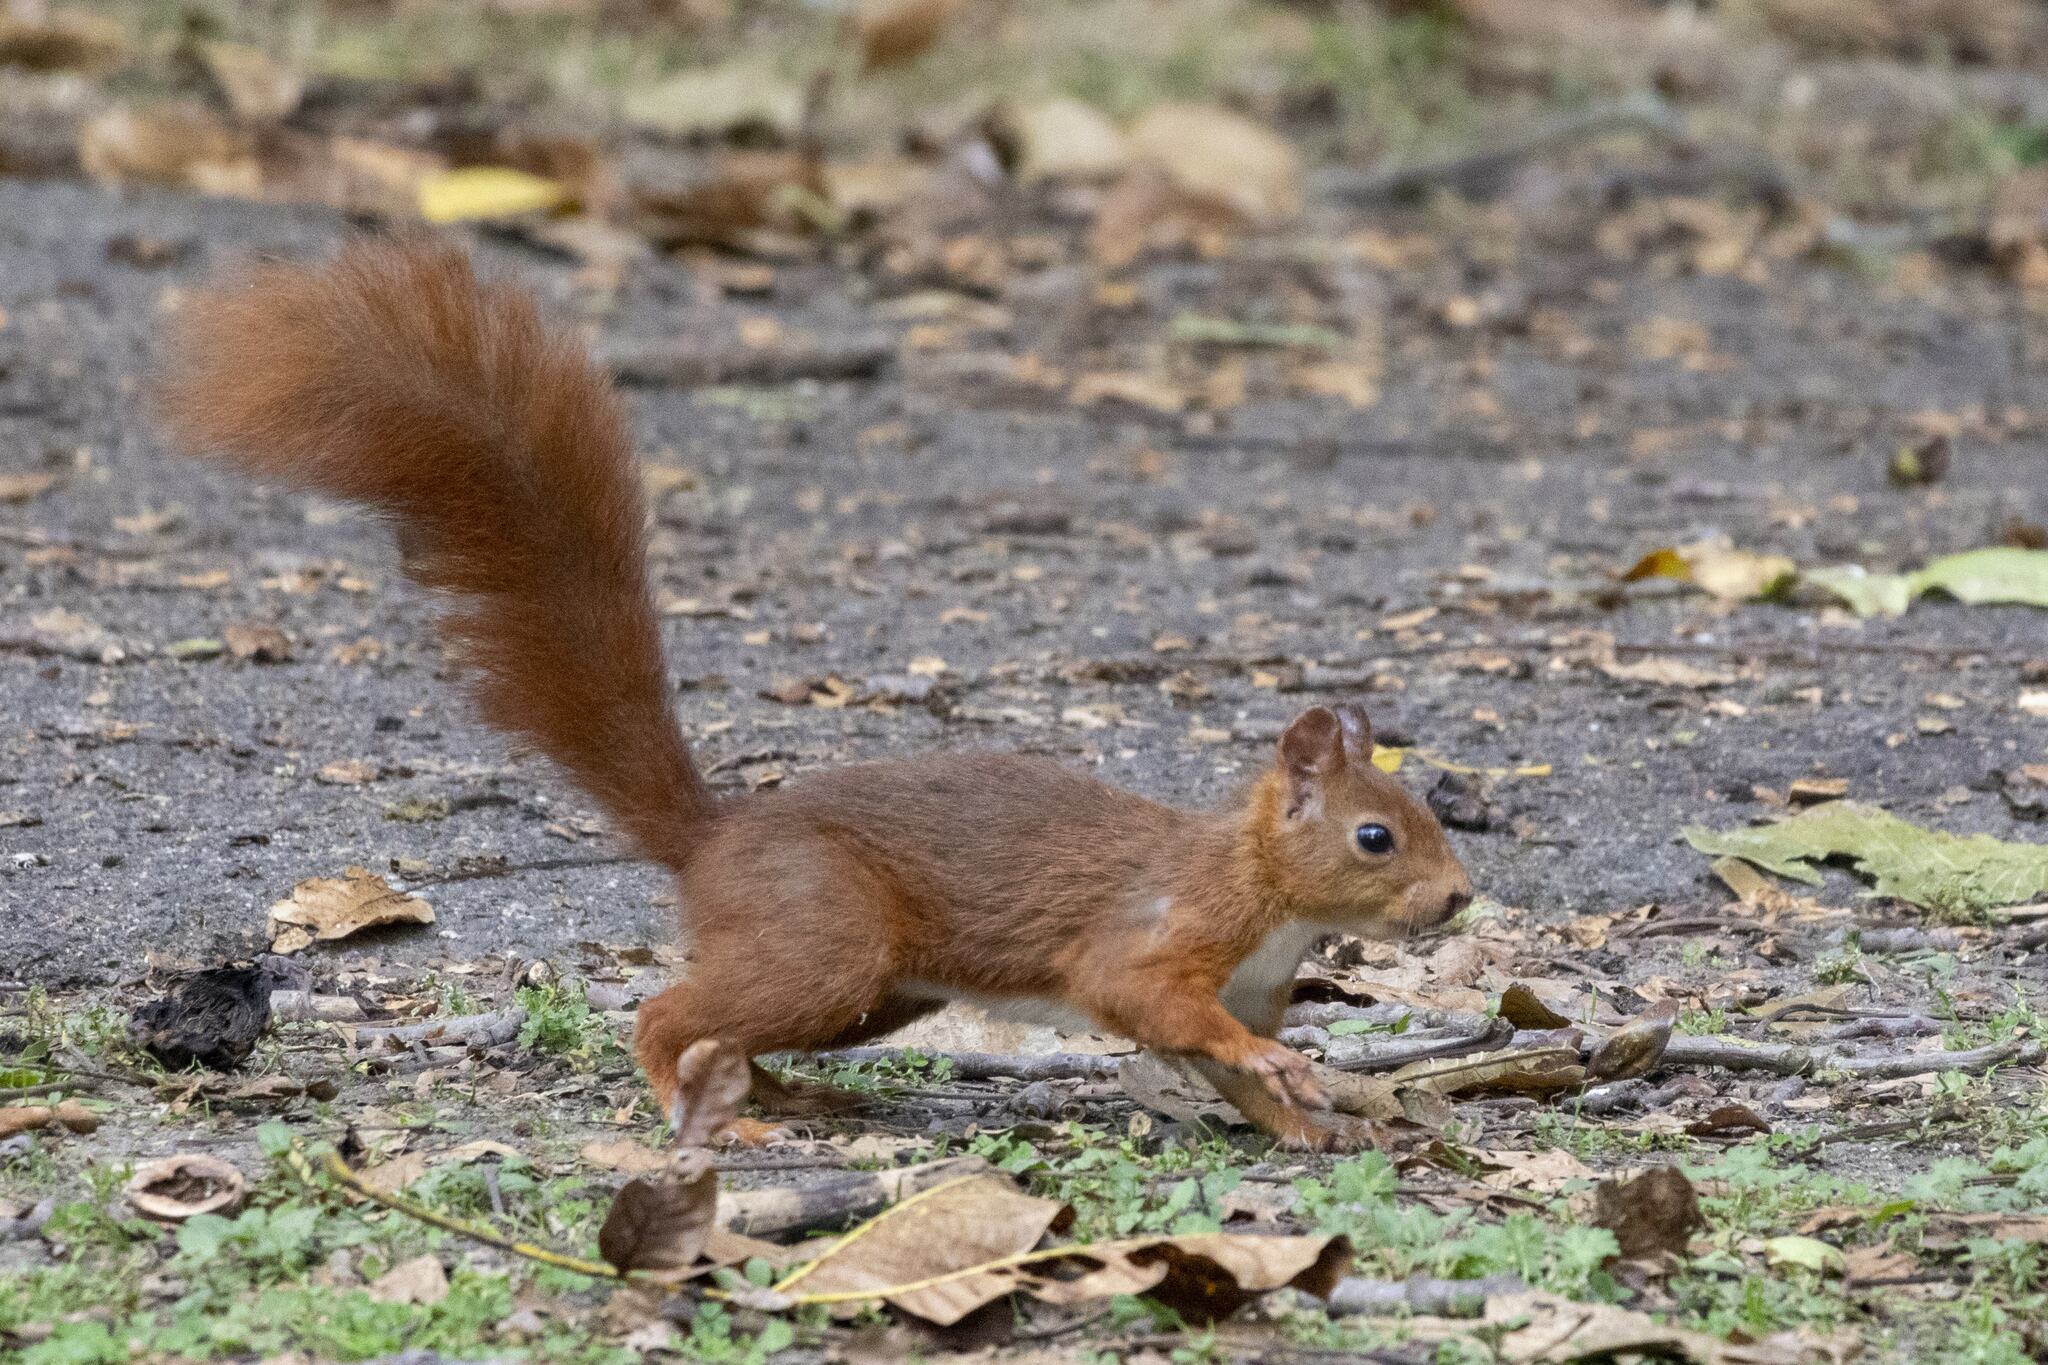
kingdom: Animalia
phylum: Chordata
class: Mammalia
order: Rodentia
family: Sciuridae
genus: Sciurus
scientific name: Sciurus vulgaris
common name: Eurasian red squirrel
